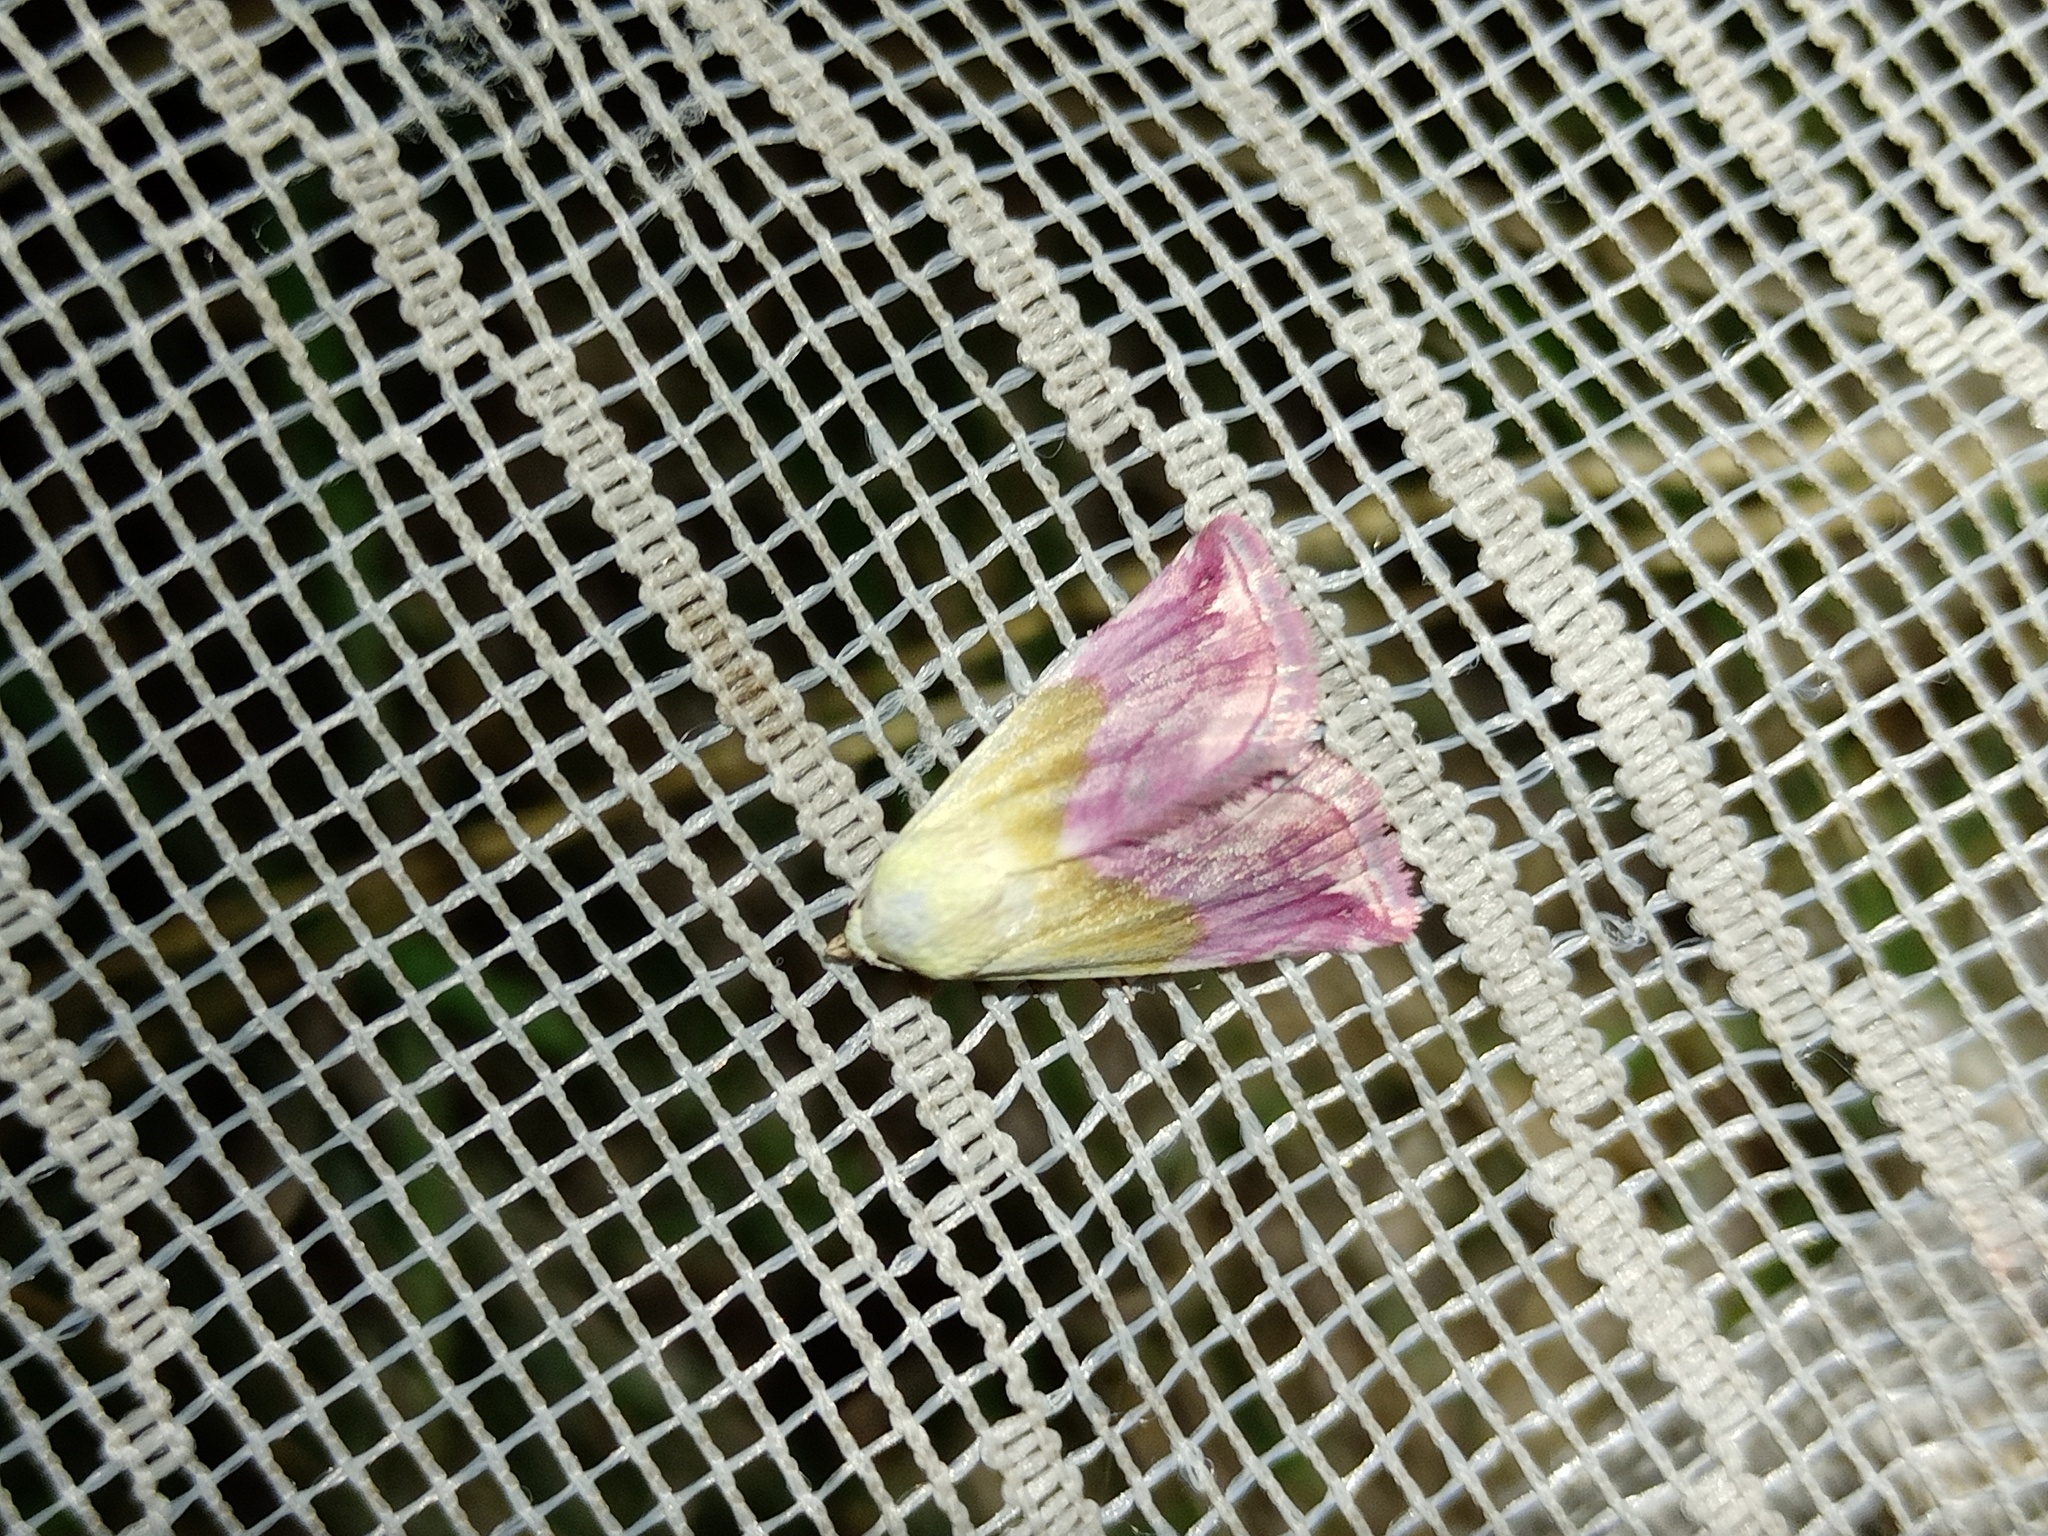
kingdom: Animalia
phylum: Arthropoda
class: Insecta
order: Lepidoptera
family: Noctuidae
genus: Eublemma
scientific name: Eublemma purpurina
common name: Beautiful marbled
